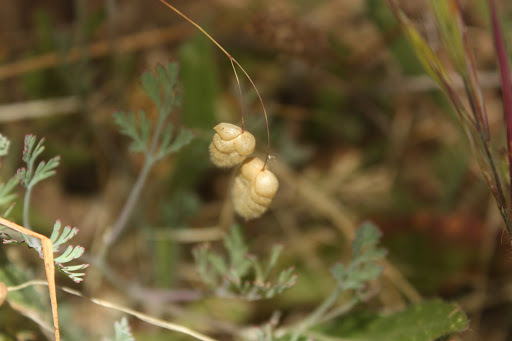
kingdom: Plantae
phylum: Tracheophyta
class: Magnoliopsida
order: Ranunculales
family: Papaveraceae
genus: Eschscholzia
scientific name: Eschscholzia californica
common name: California poppy
